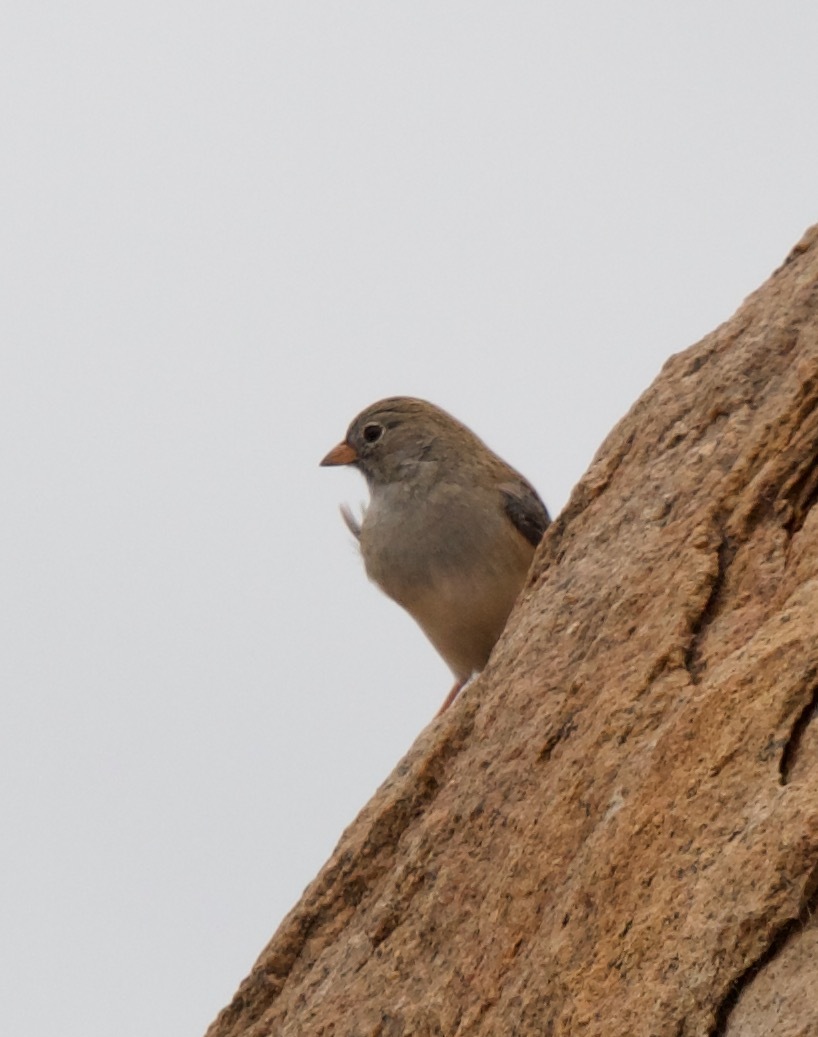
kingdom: Animalia
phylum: Chordata
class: Aves
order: Passeriformes
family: Thraupidae
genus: Porphyrospiza
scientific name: Porphyrospiza alaudina
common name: Band-tailed sierra finch
